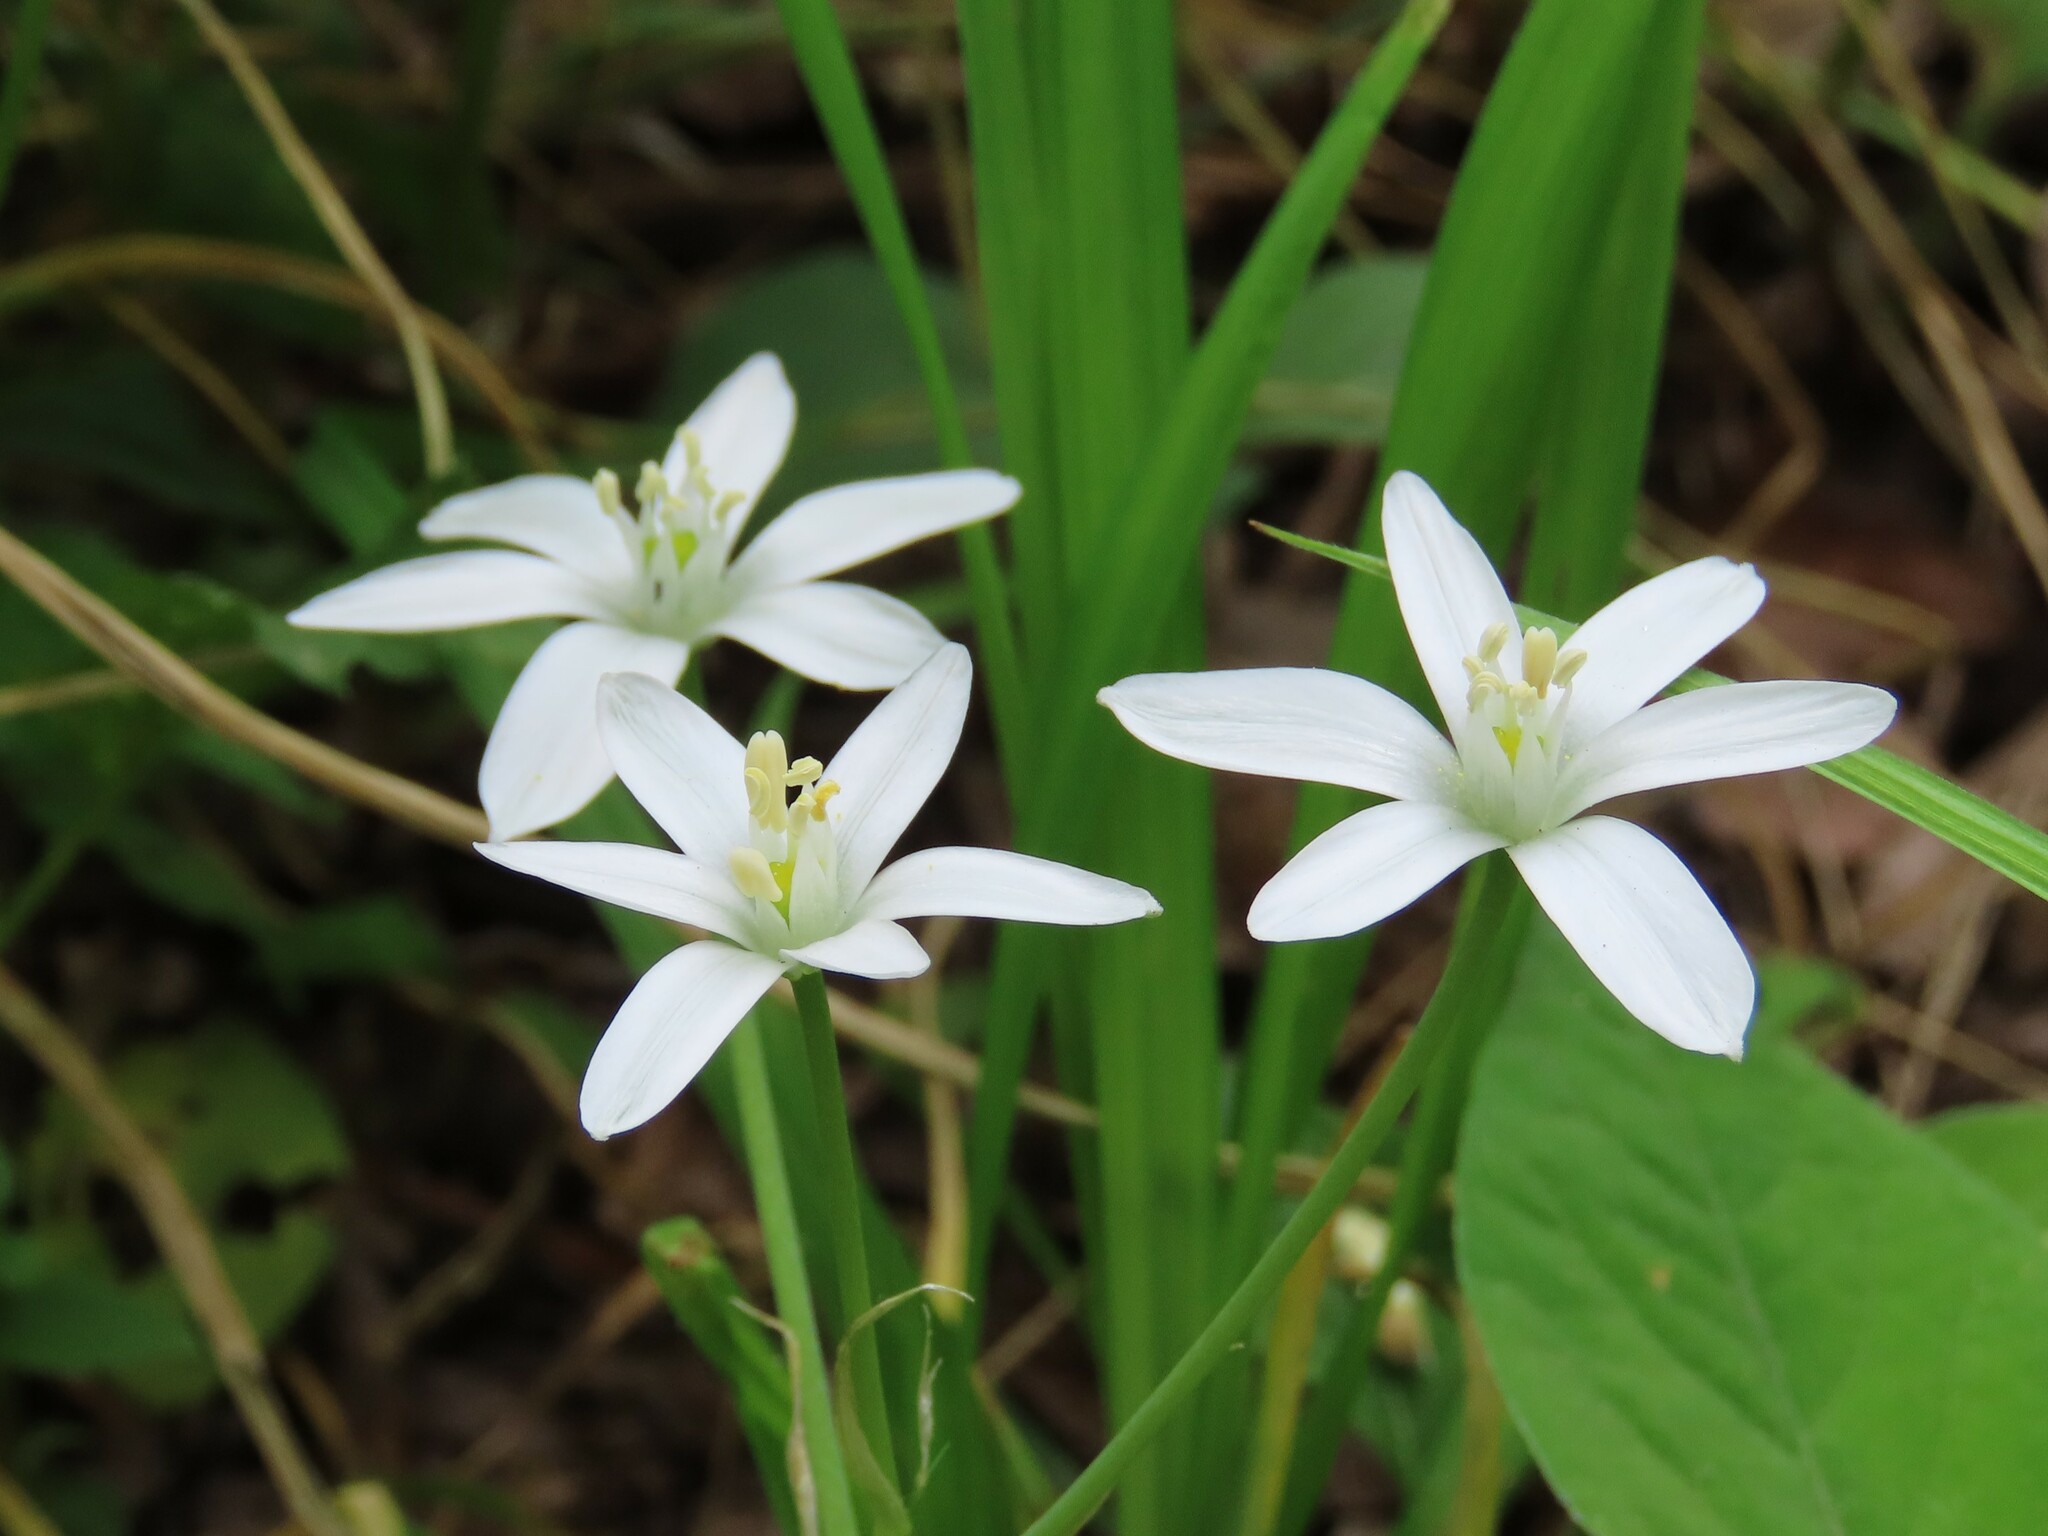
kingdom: Plantae
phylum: Tracheophyta
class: Liliopsida
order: Asparagales
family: Asparagaceae
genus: Ornithogalum
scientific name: Ornithogalum umbellatum
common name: Garden star-of-bethlehem
